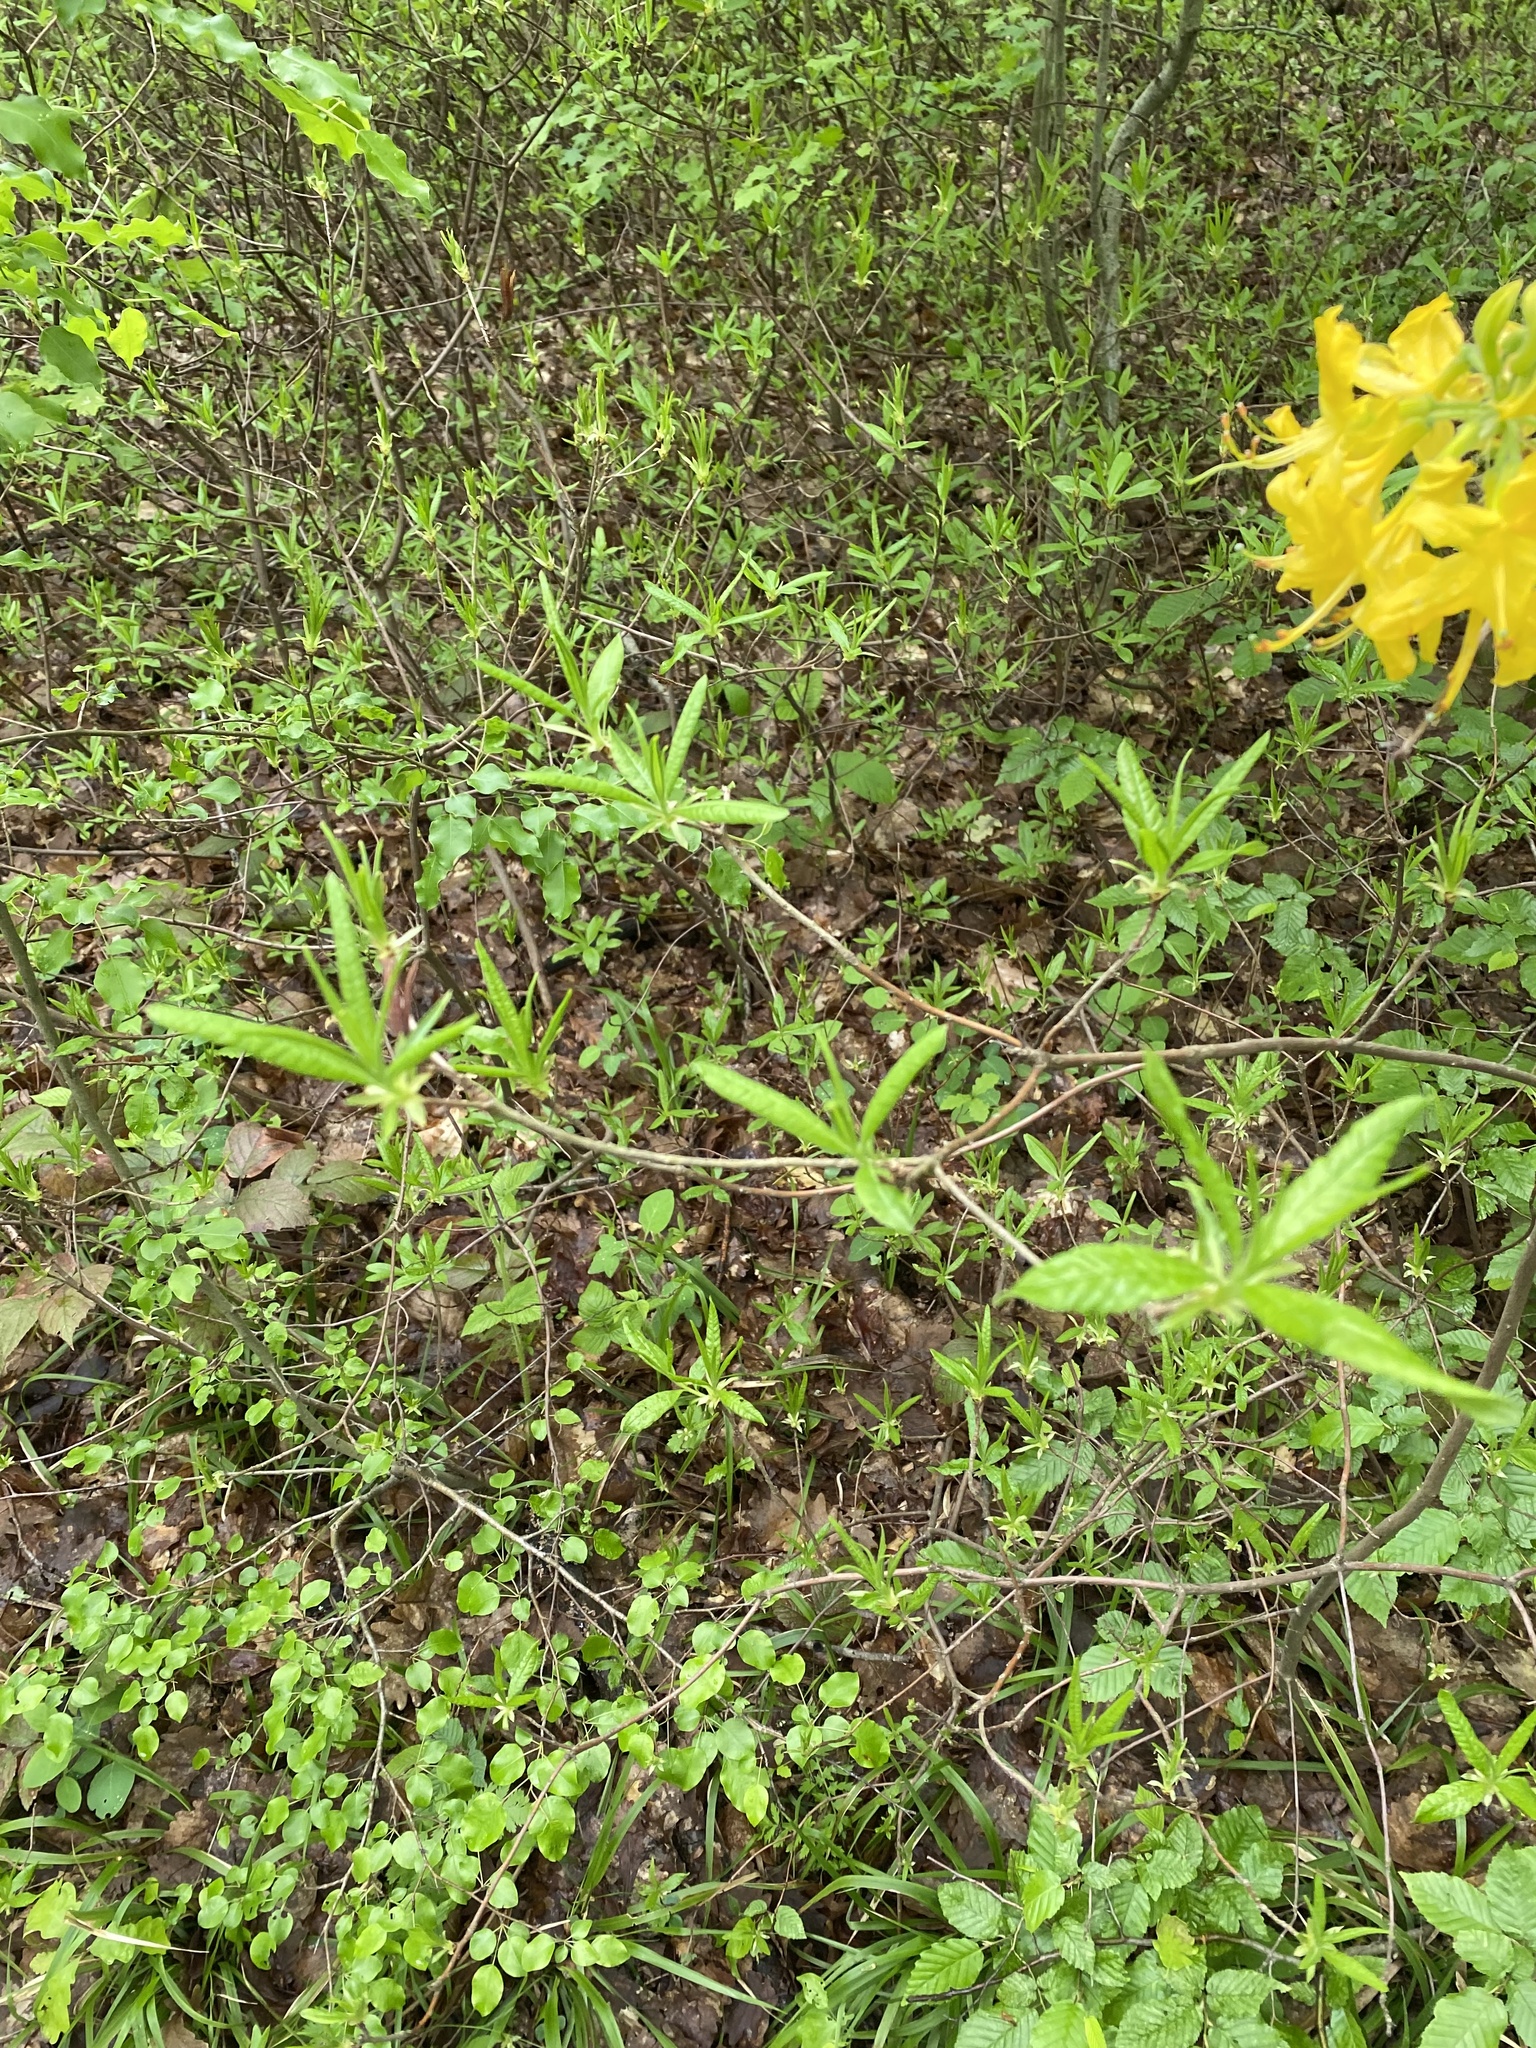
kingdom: Plantae
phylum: Tracheophyta
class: Magnoliopsida
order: Ericales
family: Ericaceae
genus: Rhododendron
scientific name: Rhododendron luteum
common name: Yellow azalea
